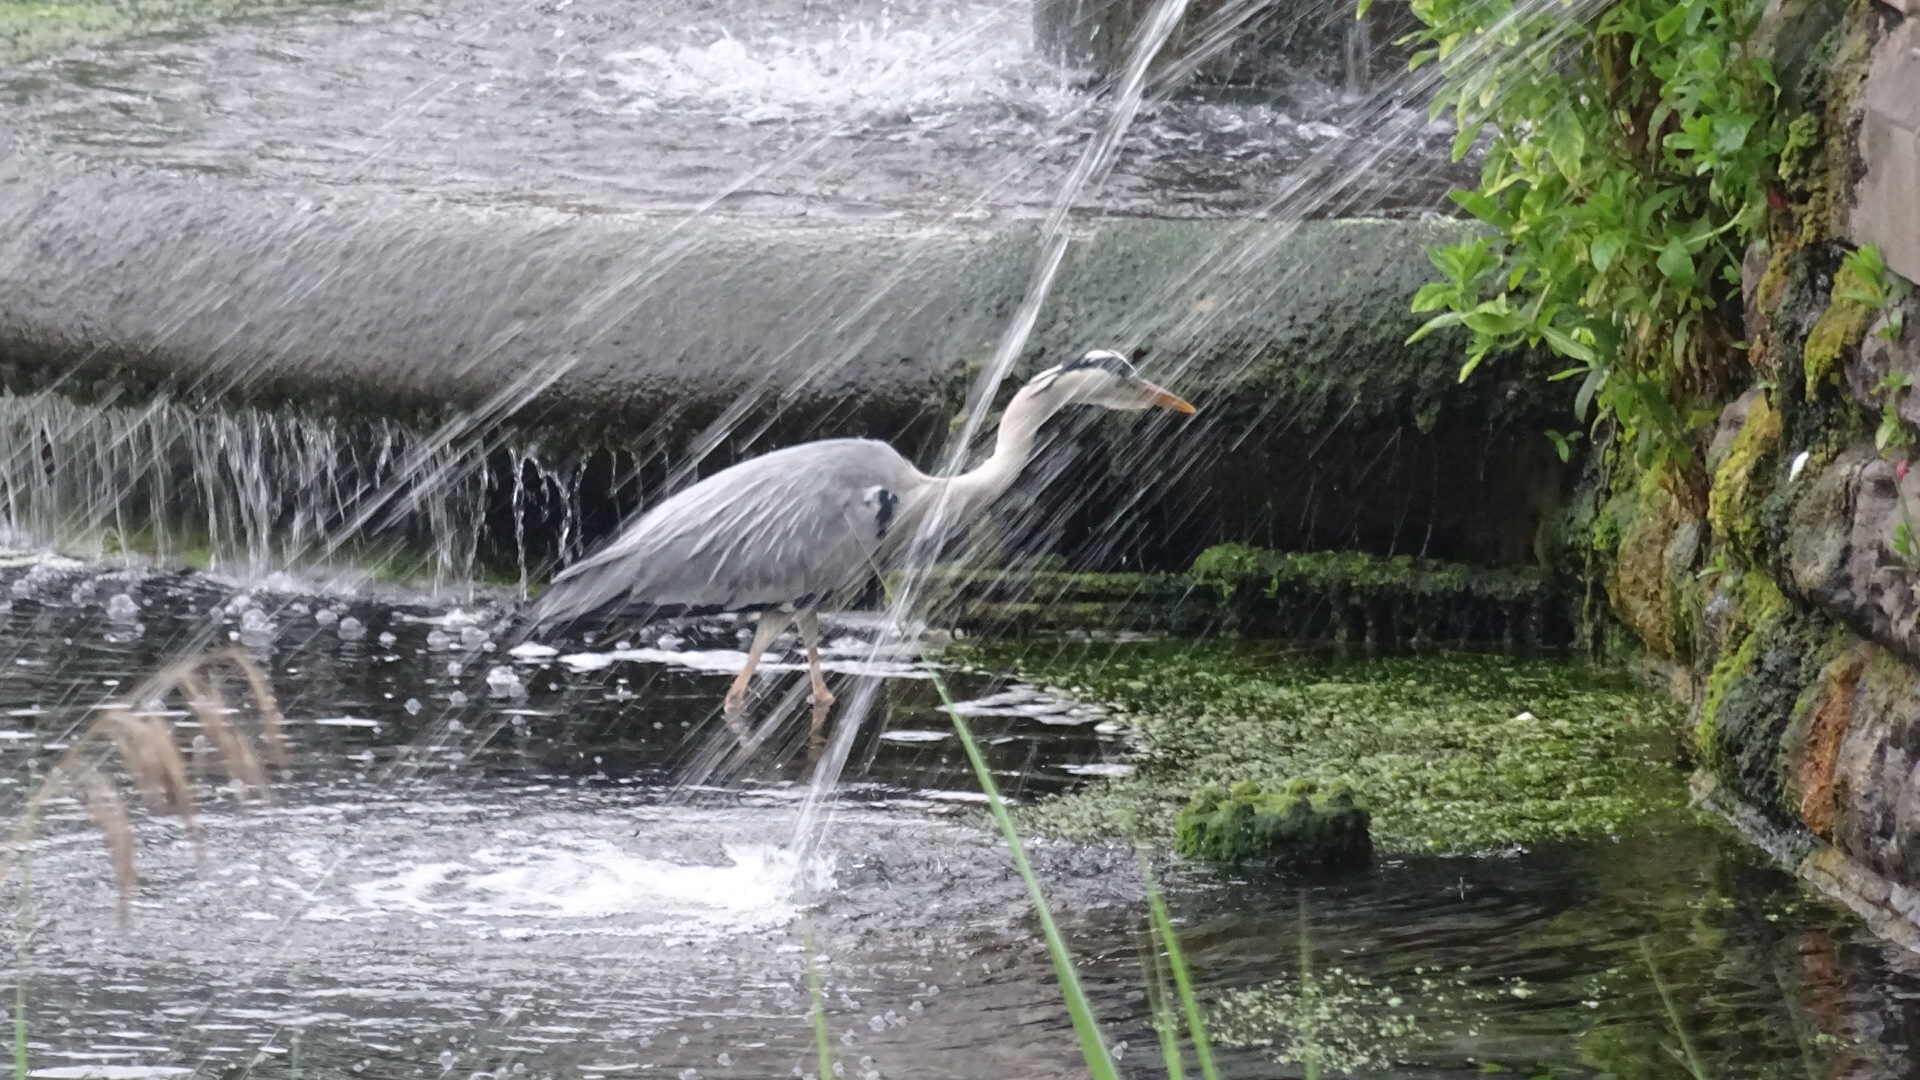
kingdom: Animalia
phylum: Chordata
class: Aves
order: Pelecaniformes
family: Ardeidae
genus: Ardea
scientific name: Ardea cinerea
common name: Grey heron
